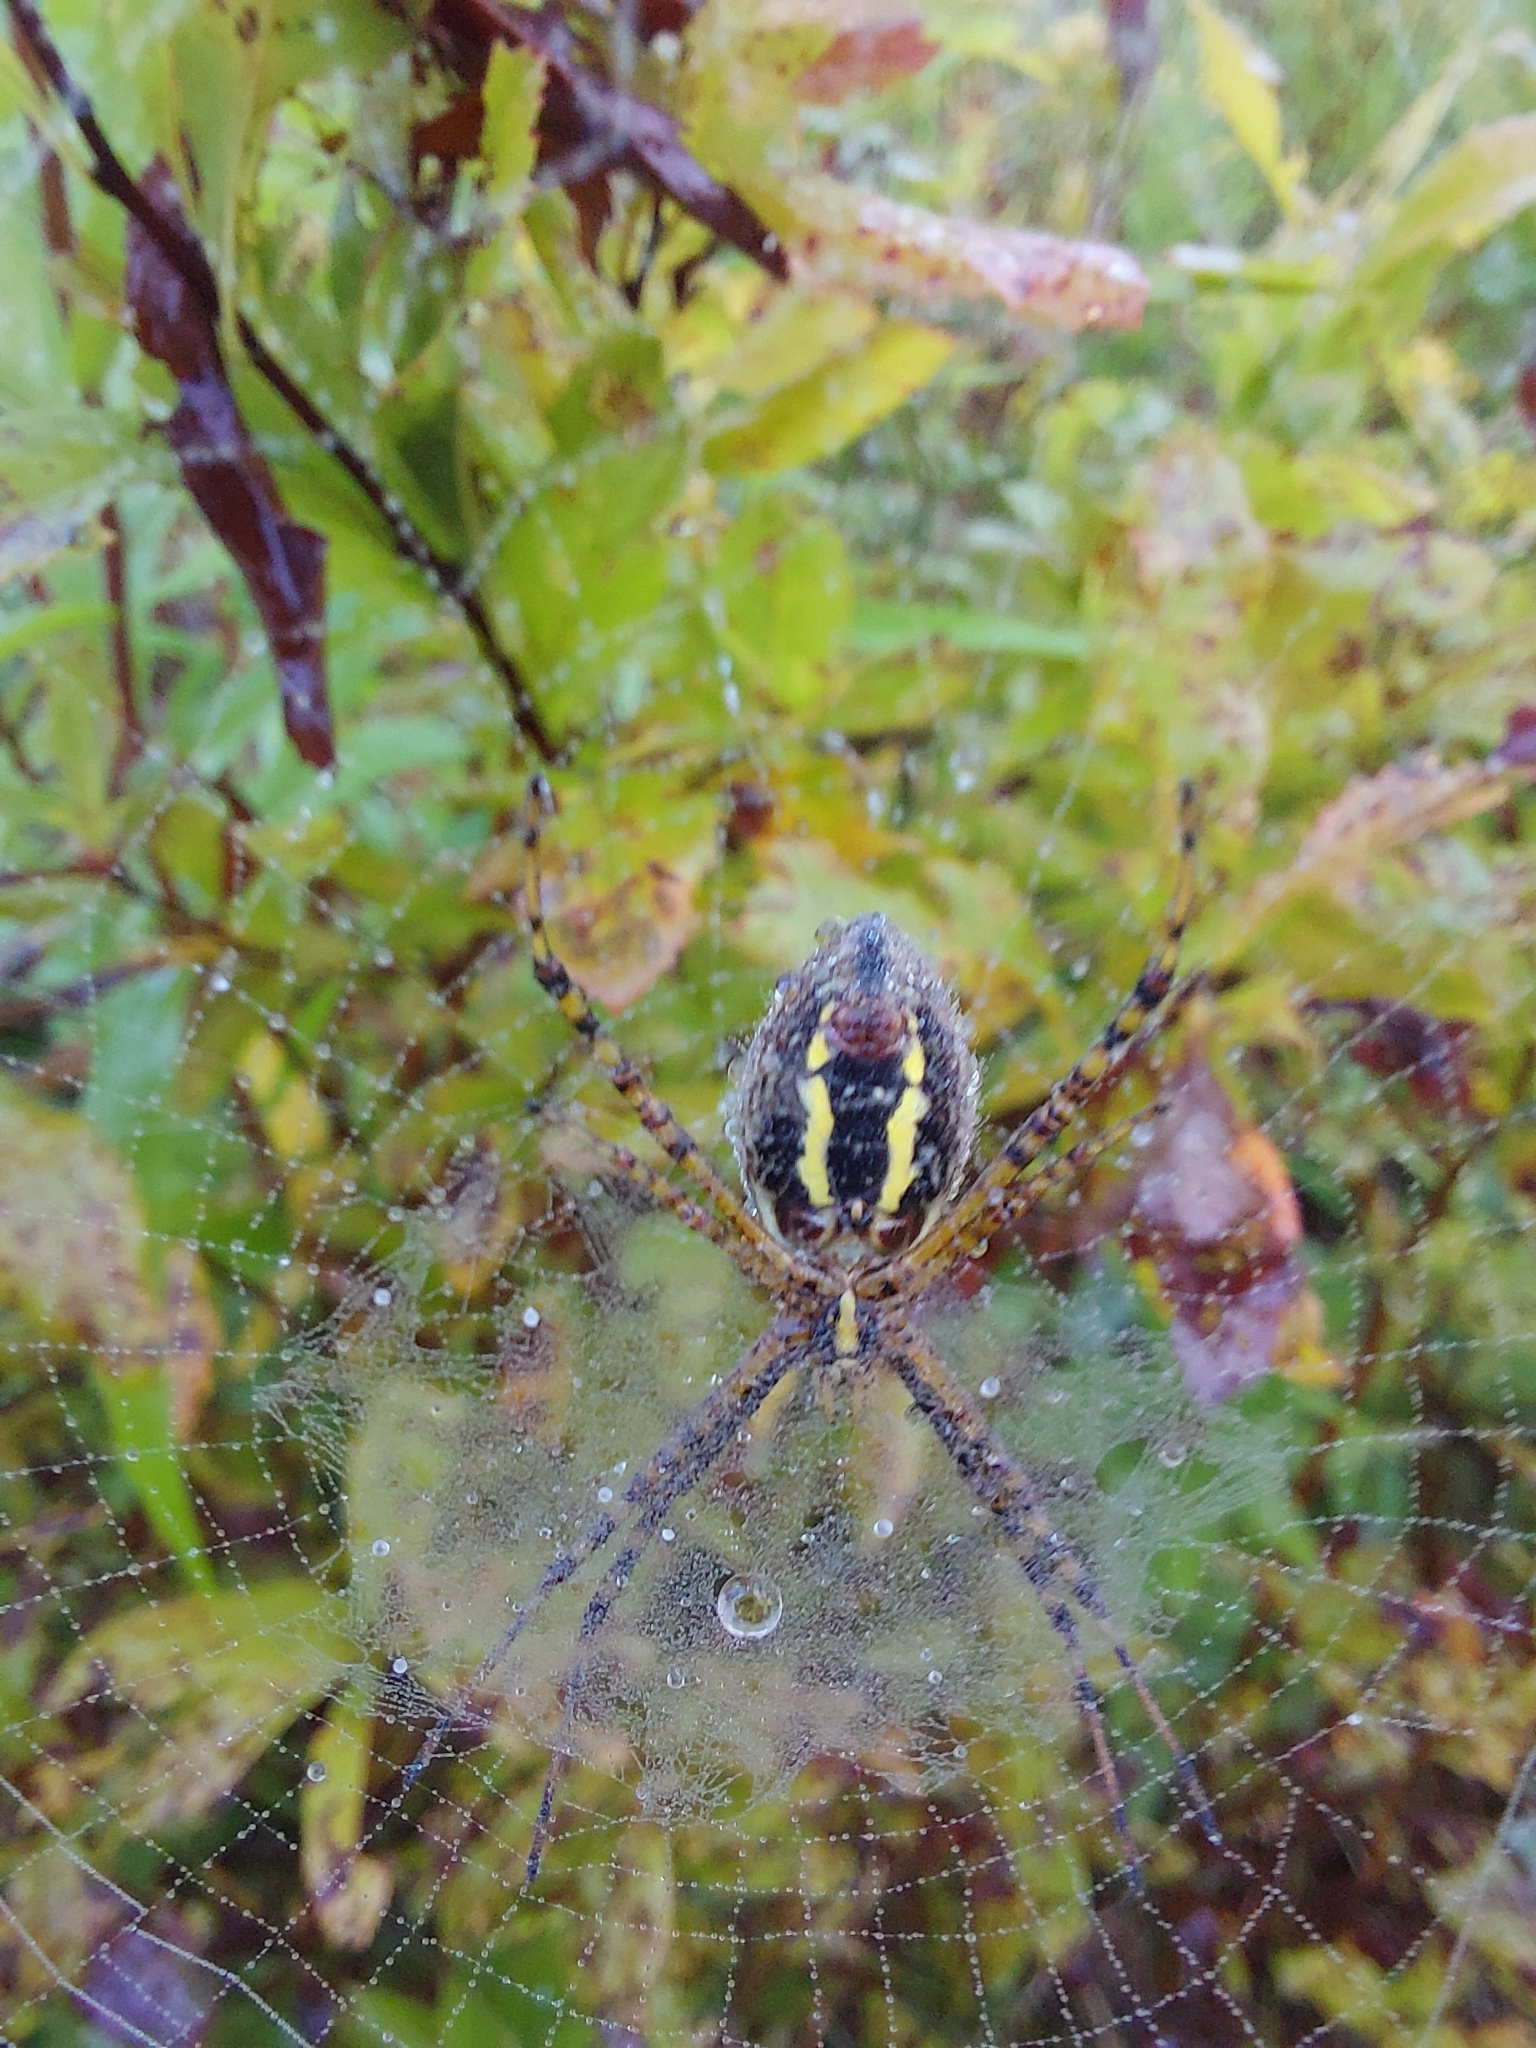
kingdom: Animalia
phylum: Arthropoda
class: Arachnida
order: Araneae
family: Araneidae
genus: Argiope
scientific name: Argiope trifasciata
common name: Banded garden spider
